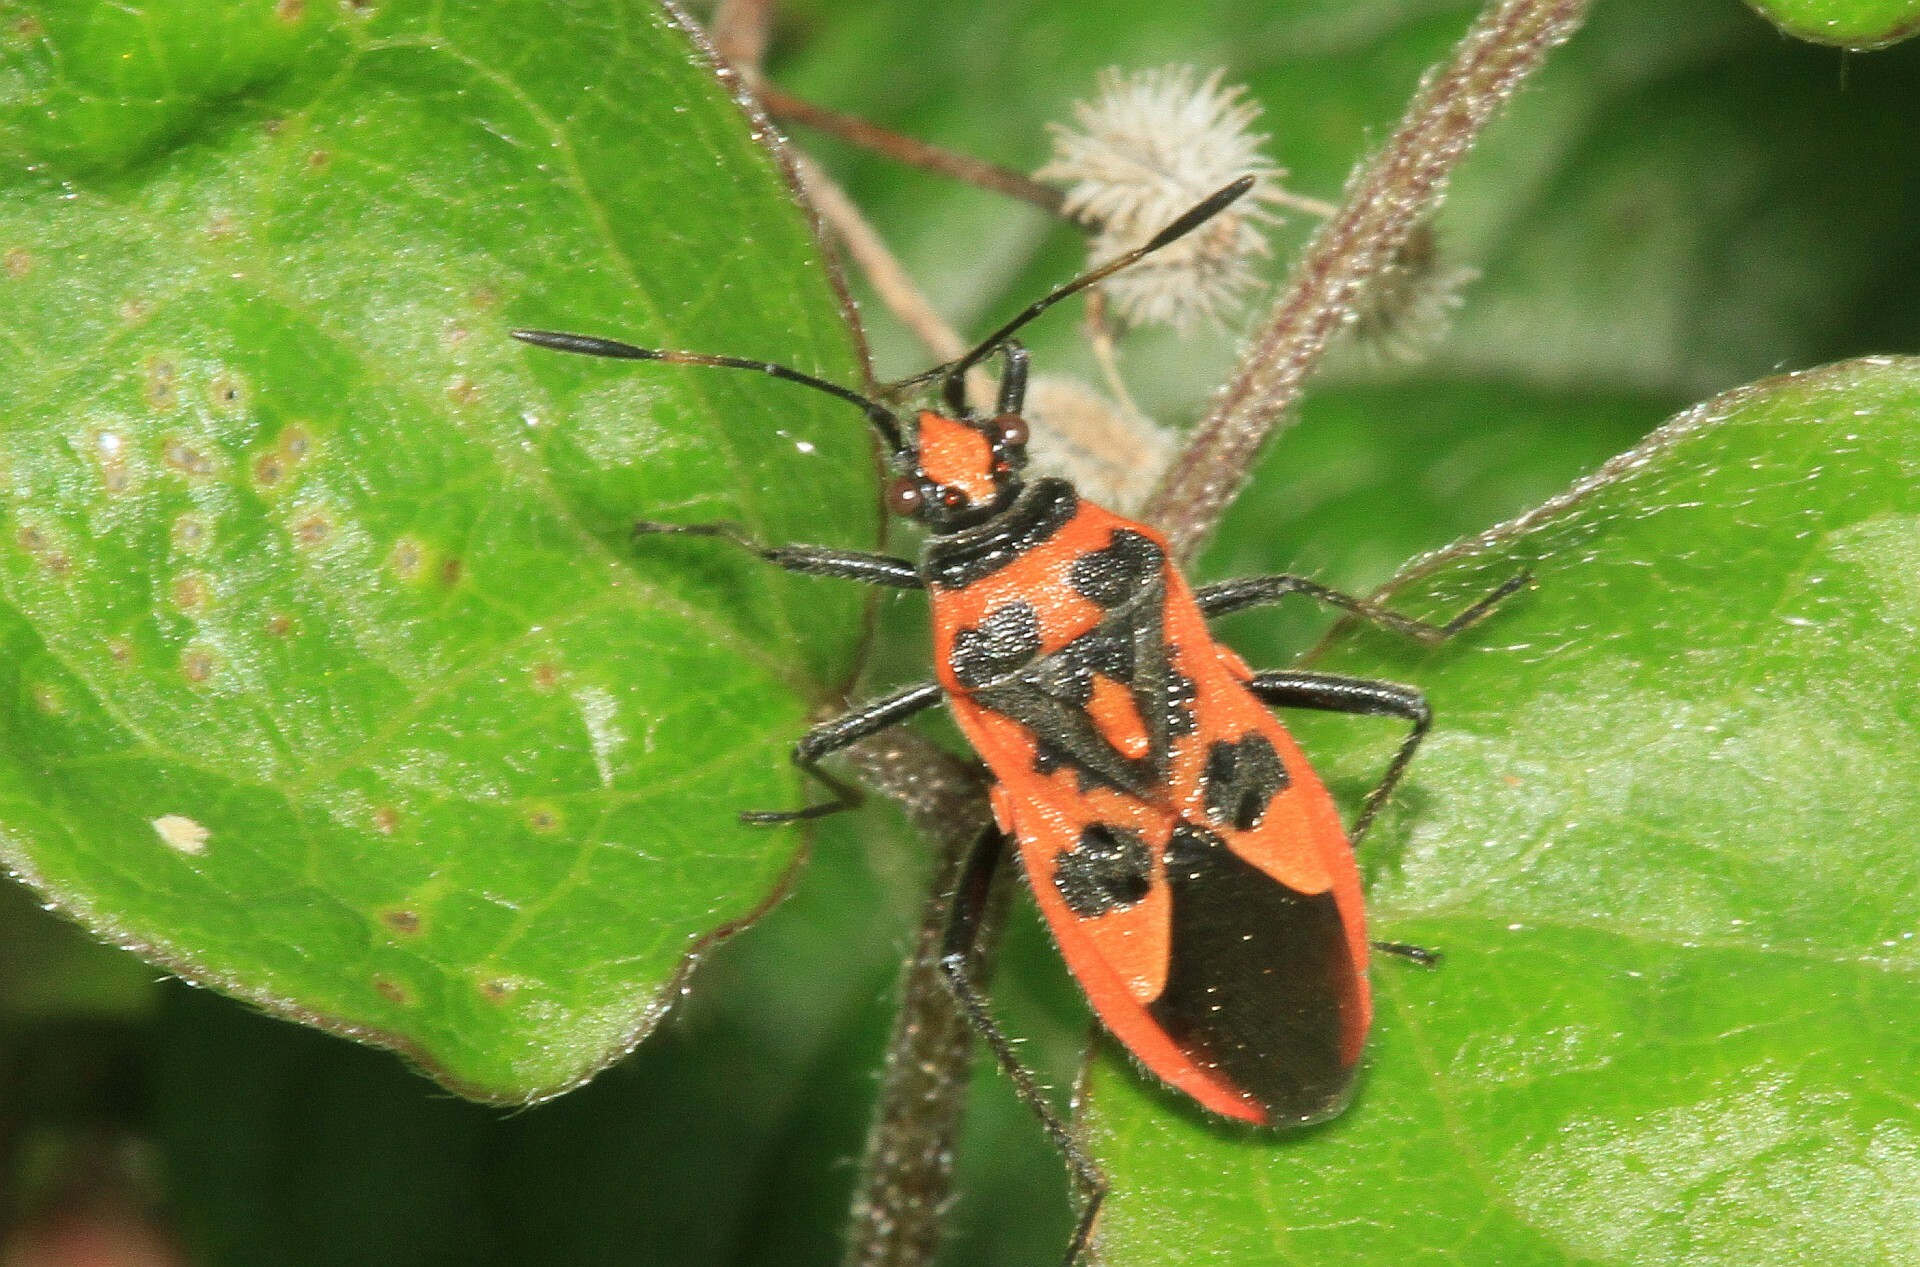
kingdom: Animalia
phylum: Arthropoda
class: Insecta
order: Hemiptera
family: Rhopalidae
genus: Corizus
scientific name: Corizus hyoscyami
